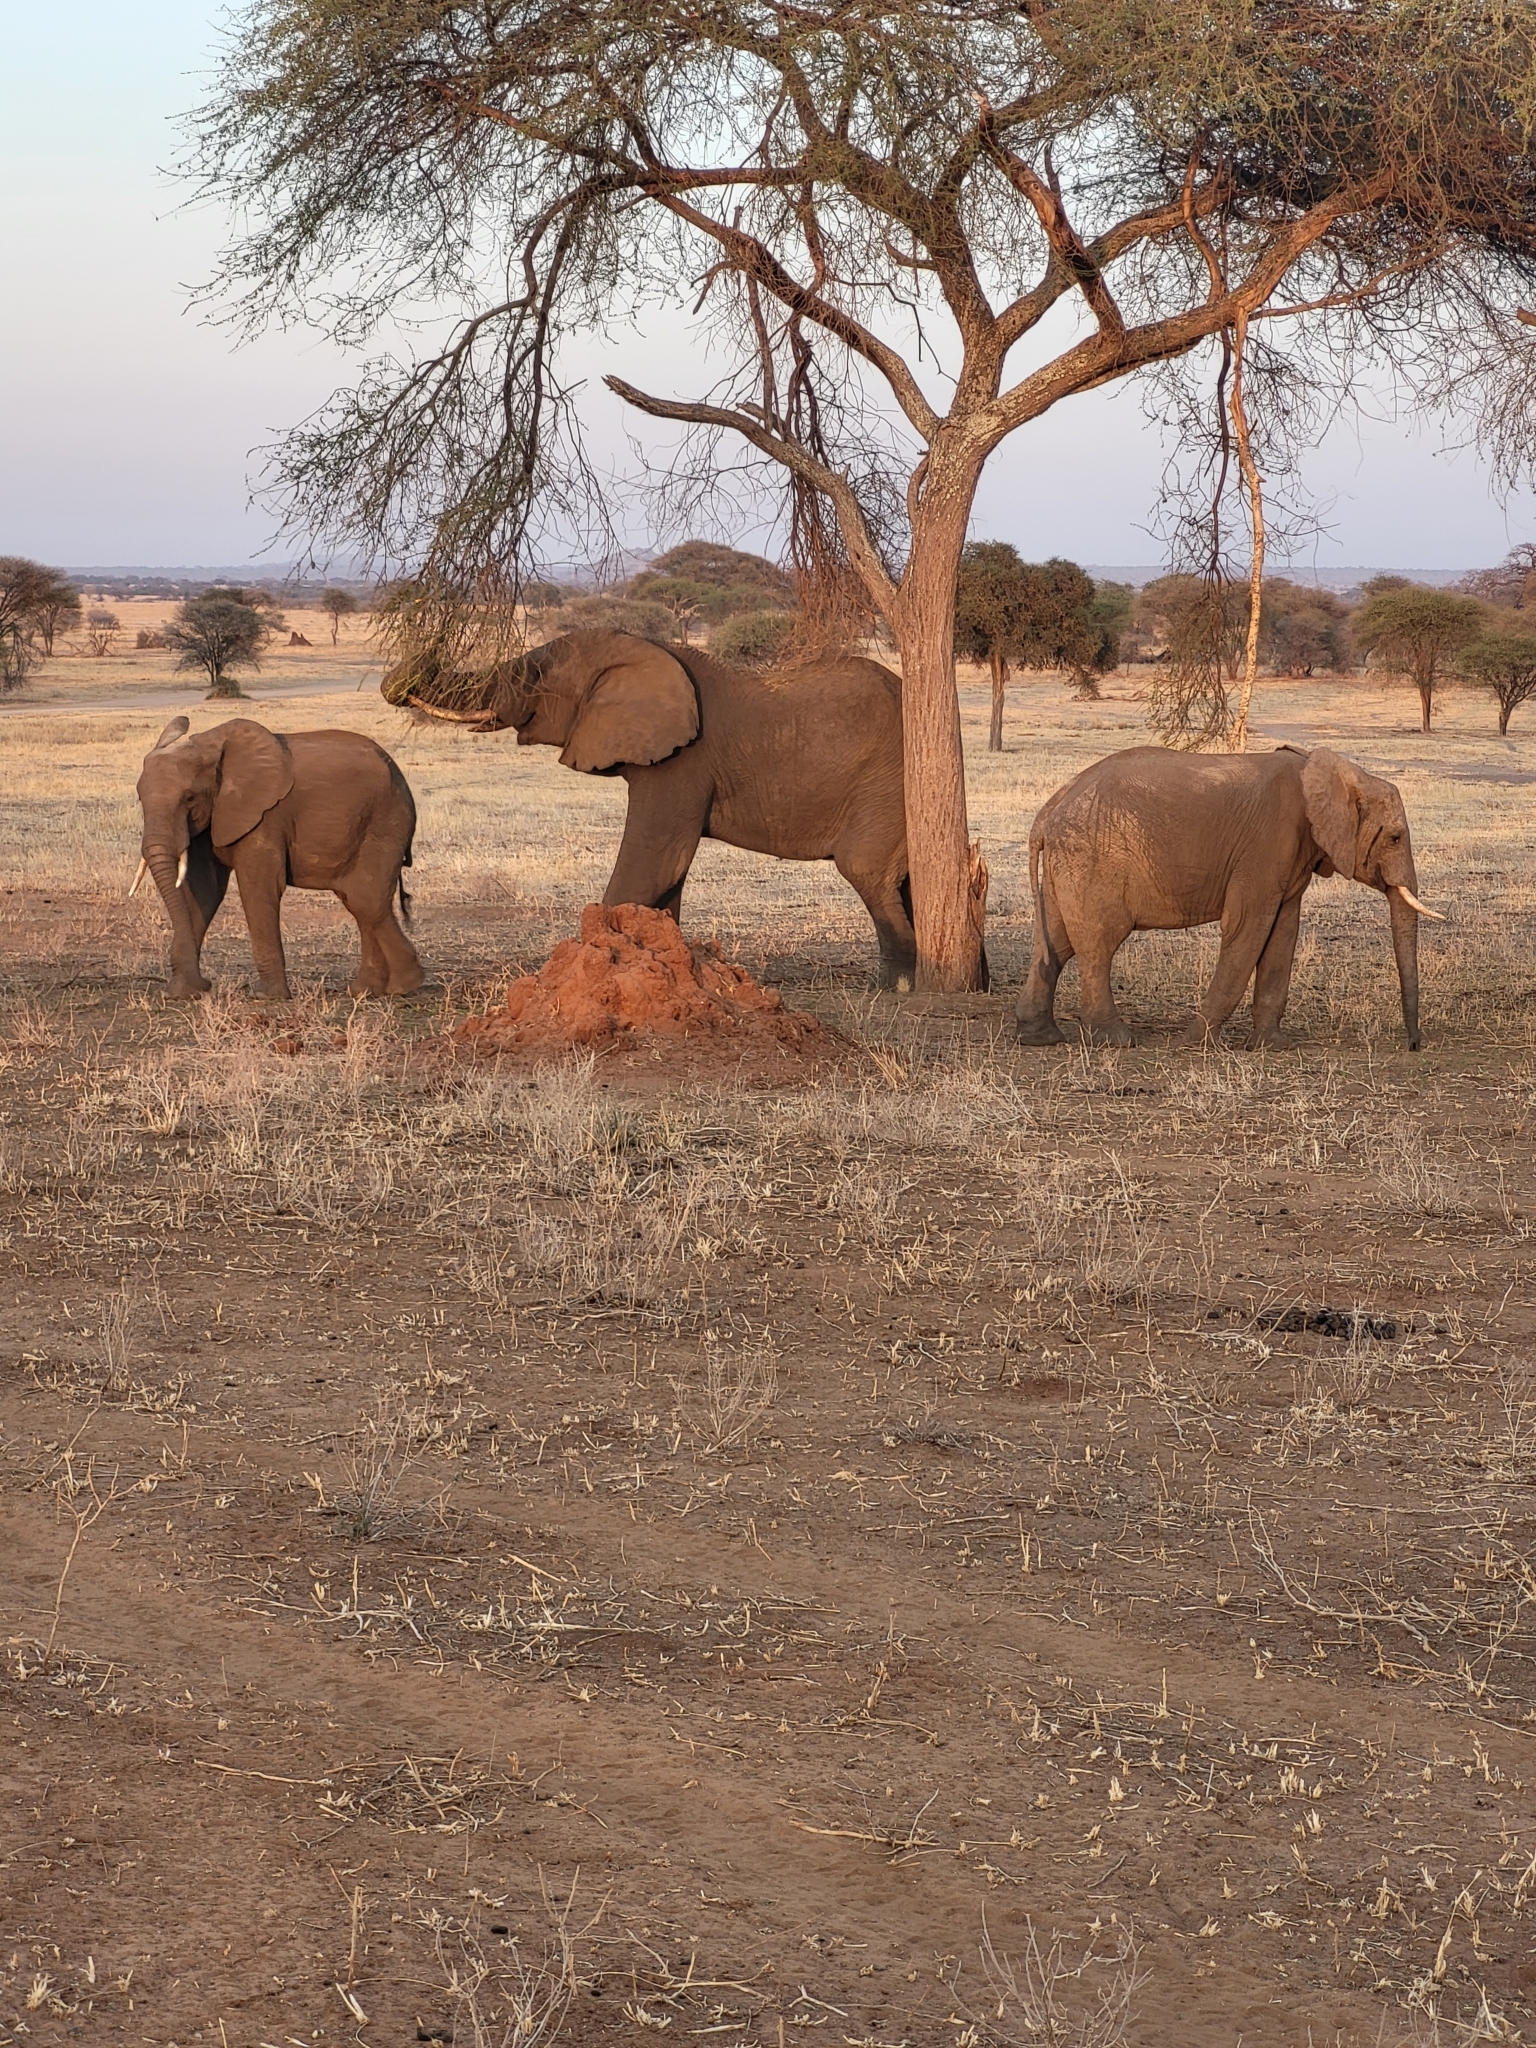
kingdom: Animalia
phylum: Chordata
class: Mammalia
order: Proboscidea
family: Elephantidae
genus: Loxodonta
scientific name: Loxodonta africana
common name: African elephant
